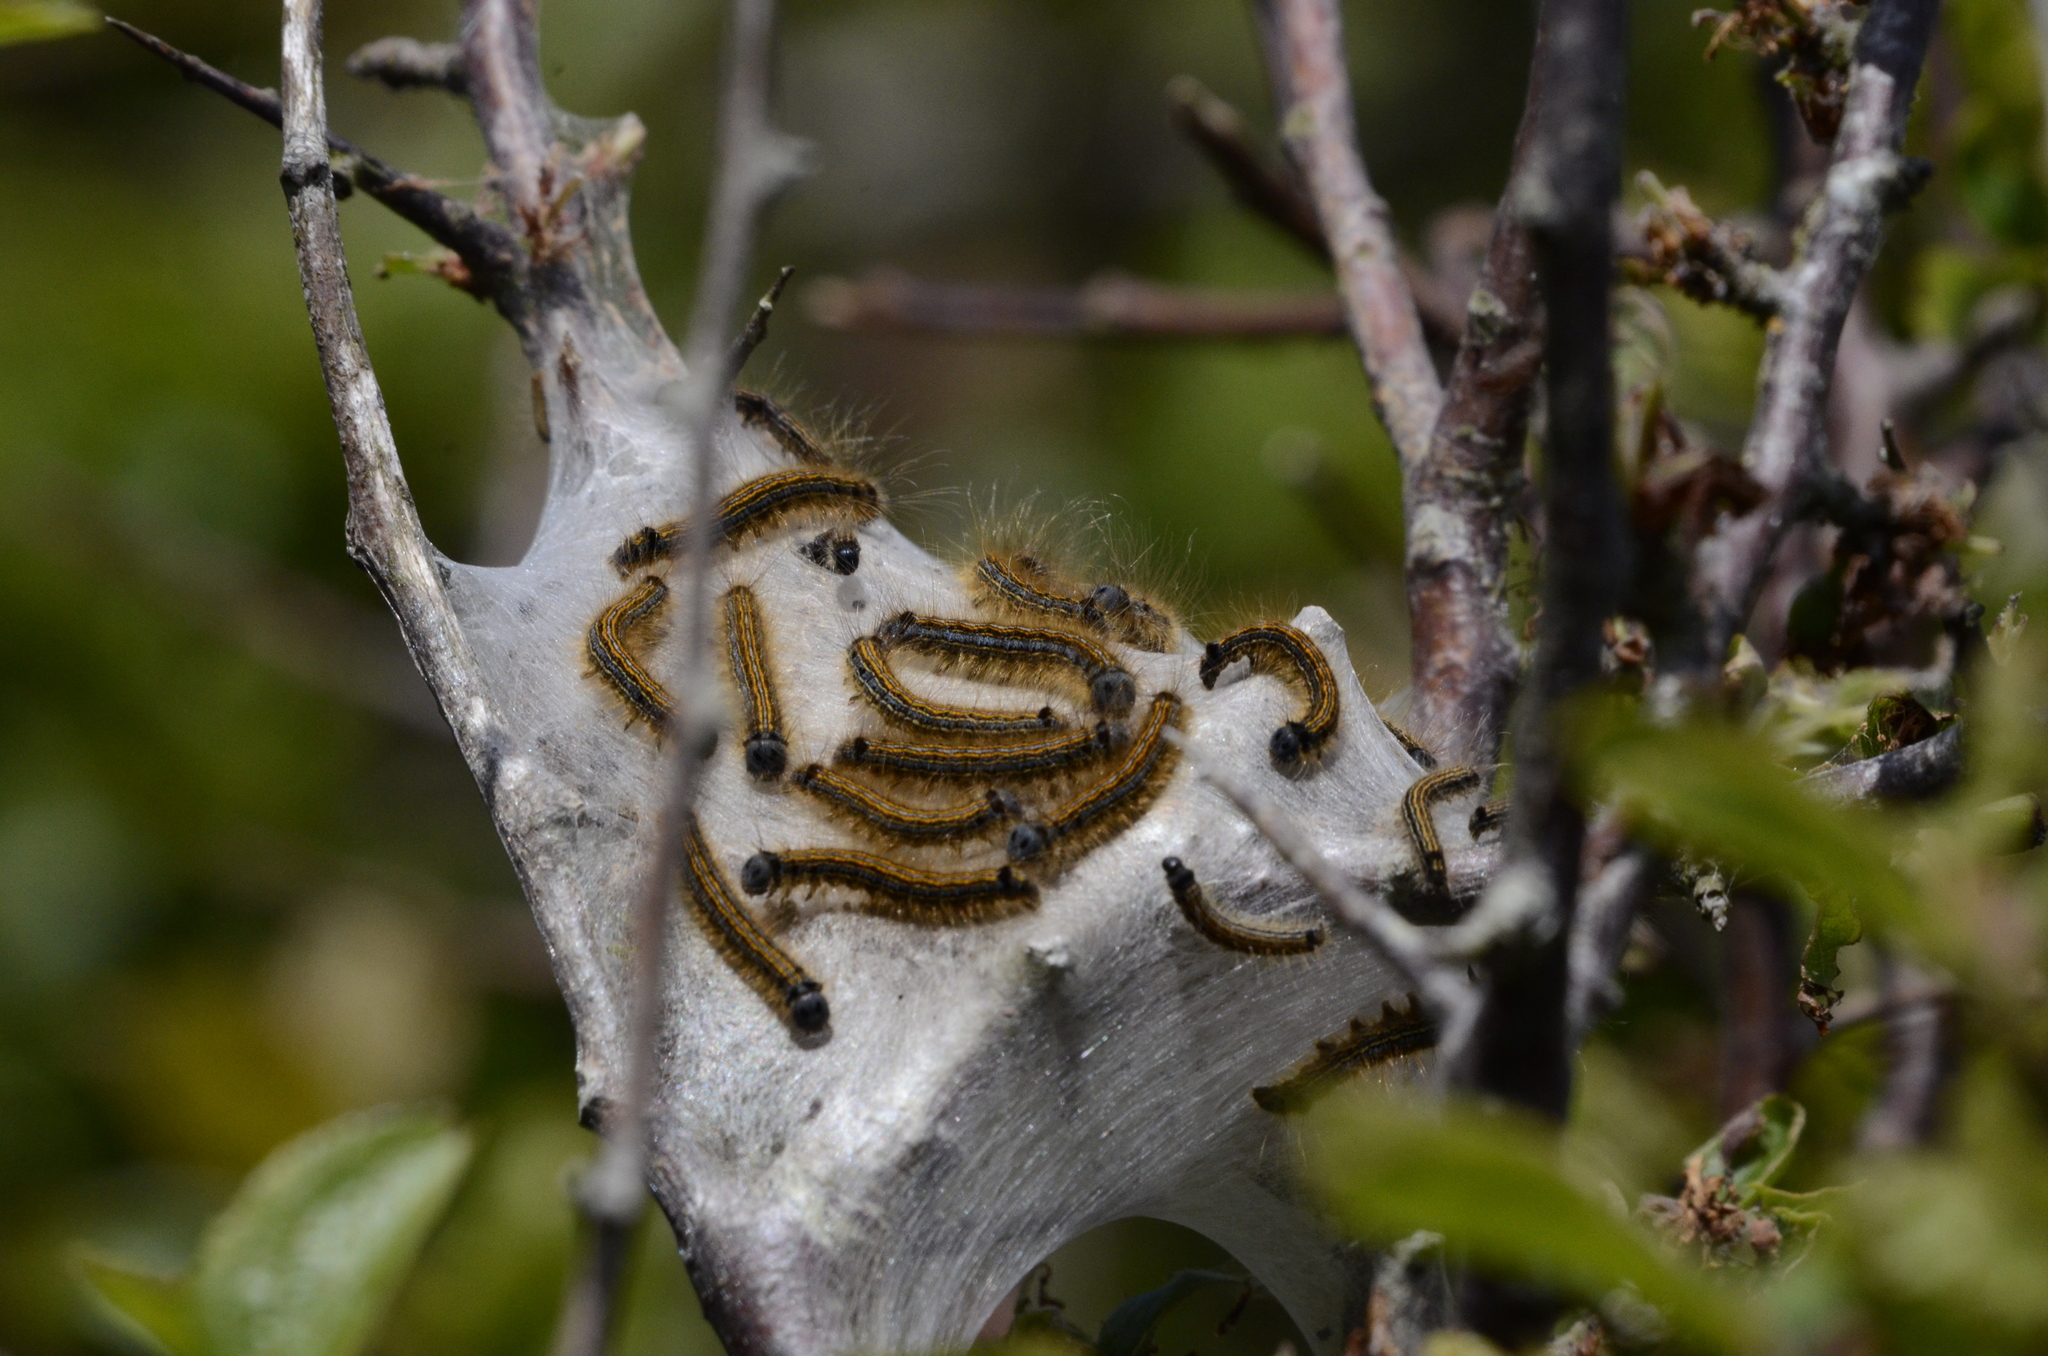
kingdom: Animalia
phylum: Arthropoda
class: Insecta
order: Lepidoptera
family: Lasiocampidae
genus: Malacosoma
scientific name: Malacosoma neustria
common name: The lackey
